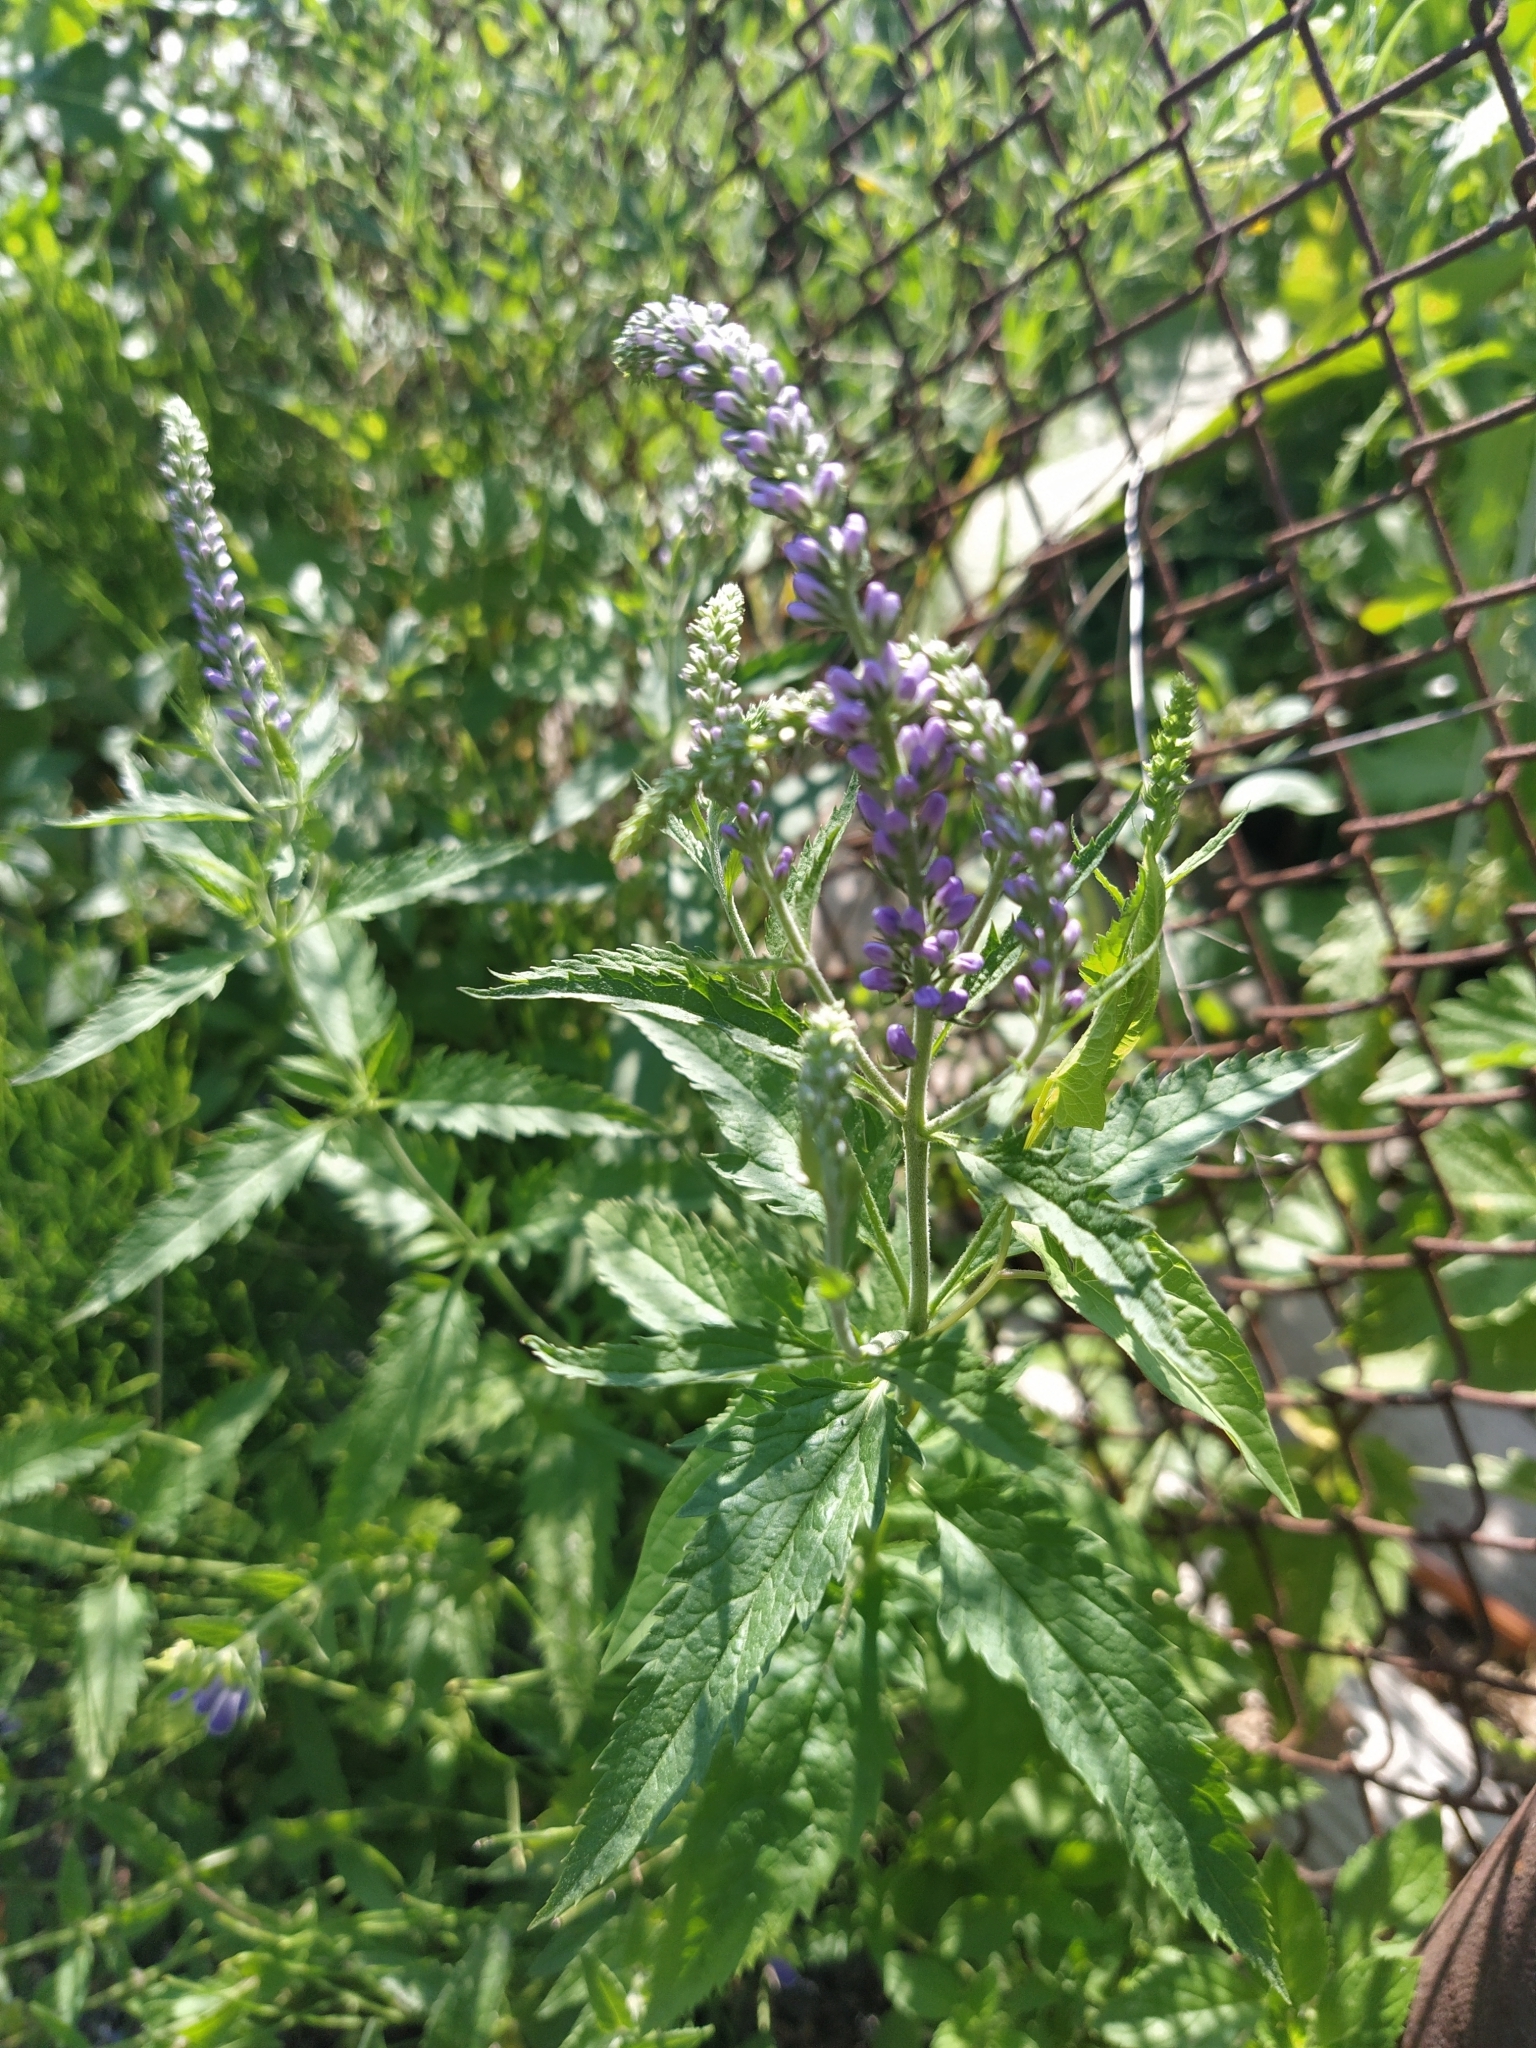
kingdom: Plantae
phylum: Tracheophyta
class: Magnoliopsida
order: Lamiales
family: Plantaginaceae
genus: Veronica
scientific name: Veronica longifolia
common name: Garden speedwell
